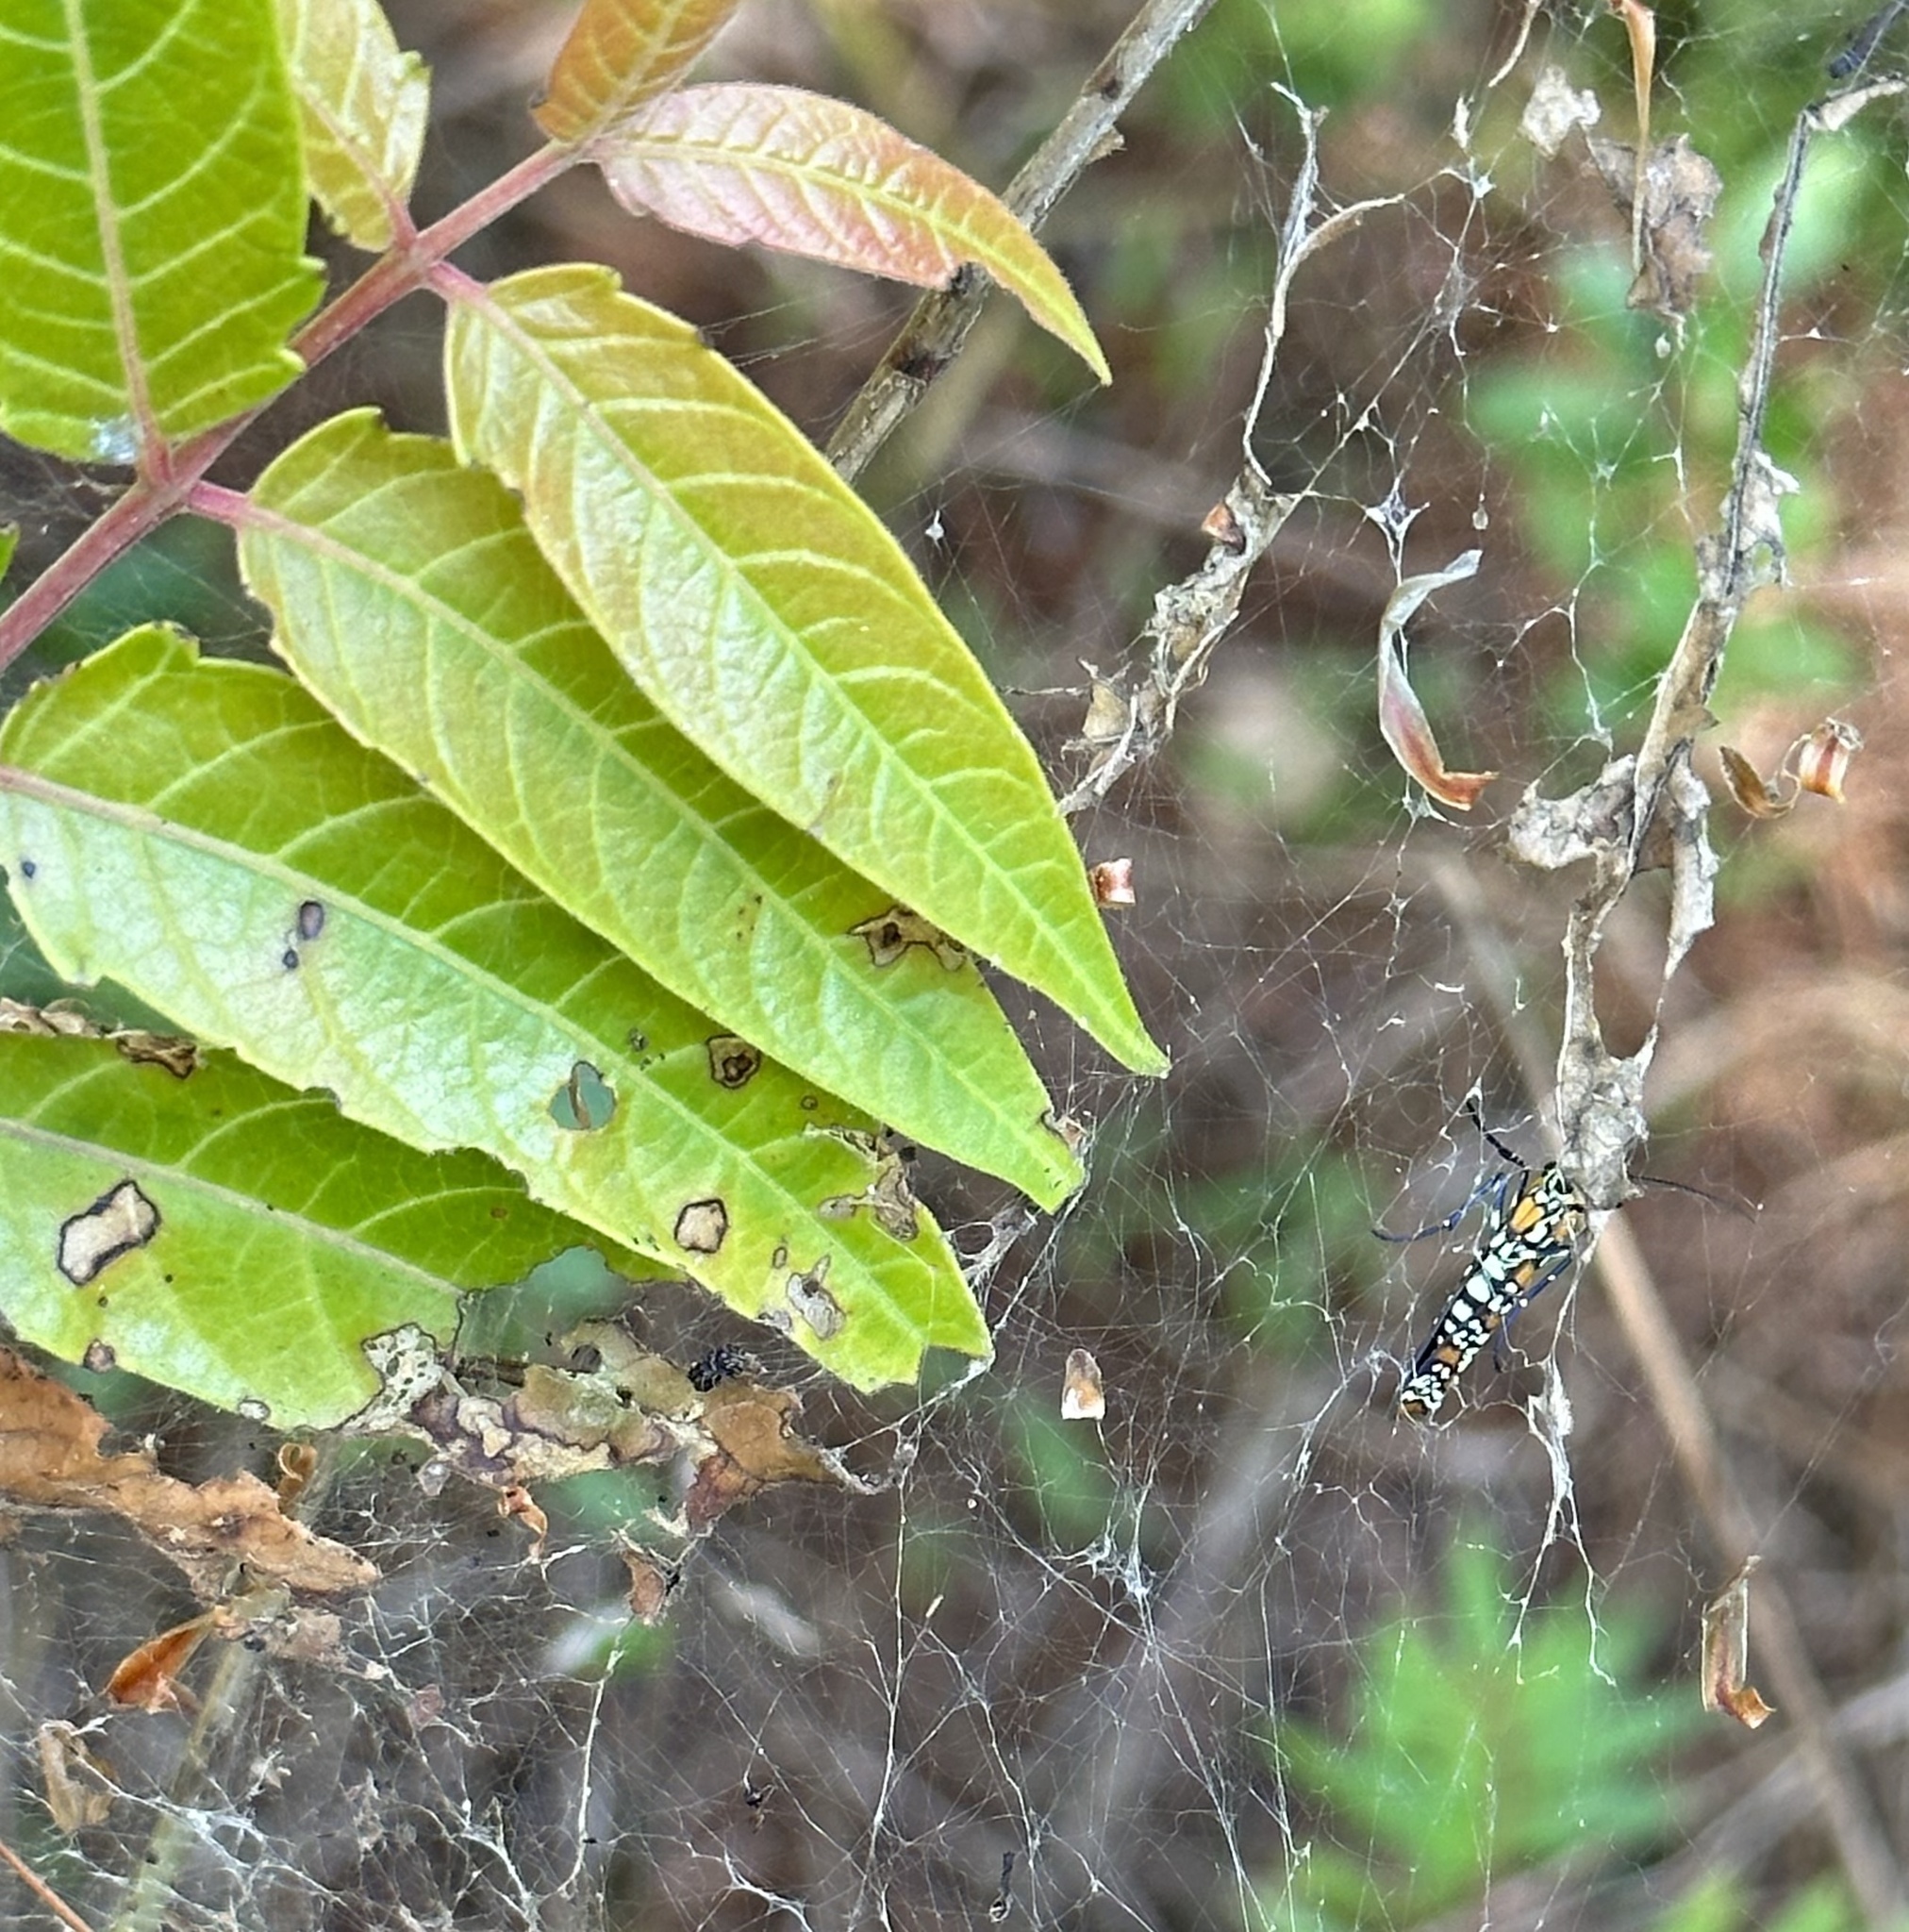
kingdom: Animalia
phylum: Arthropoda
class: Insecta
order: Lepidoptera
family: Attevidae
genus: Atteva
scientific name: Atteva punctella
